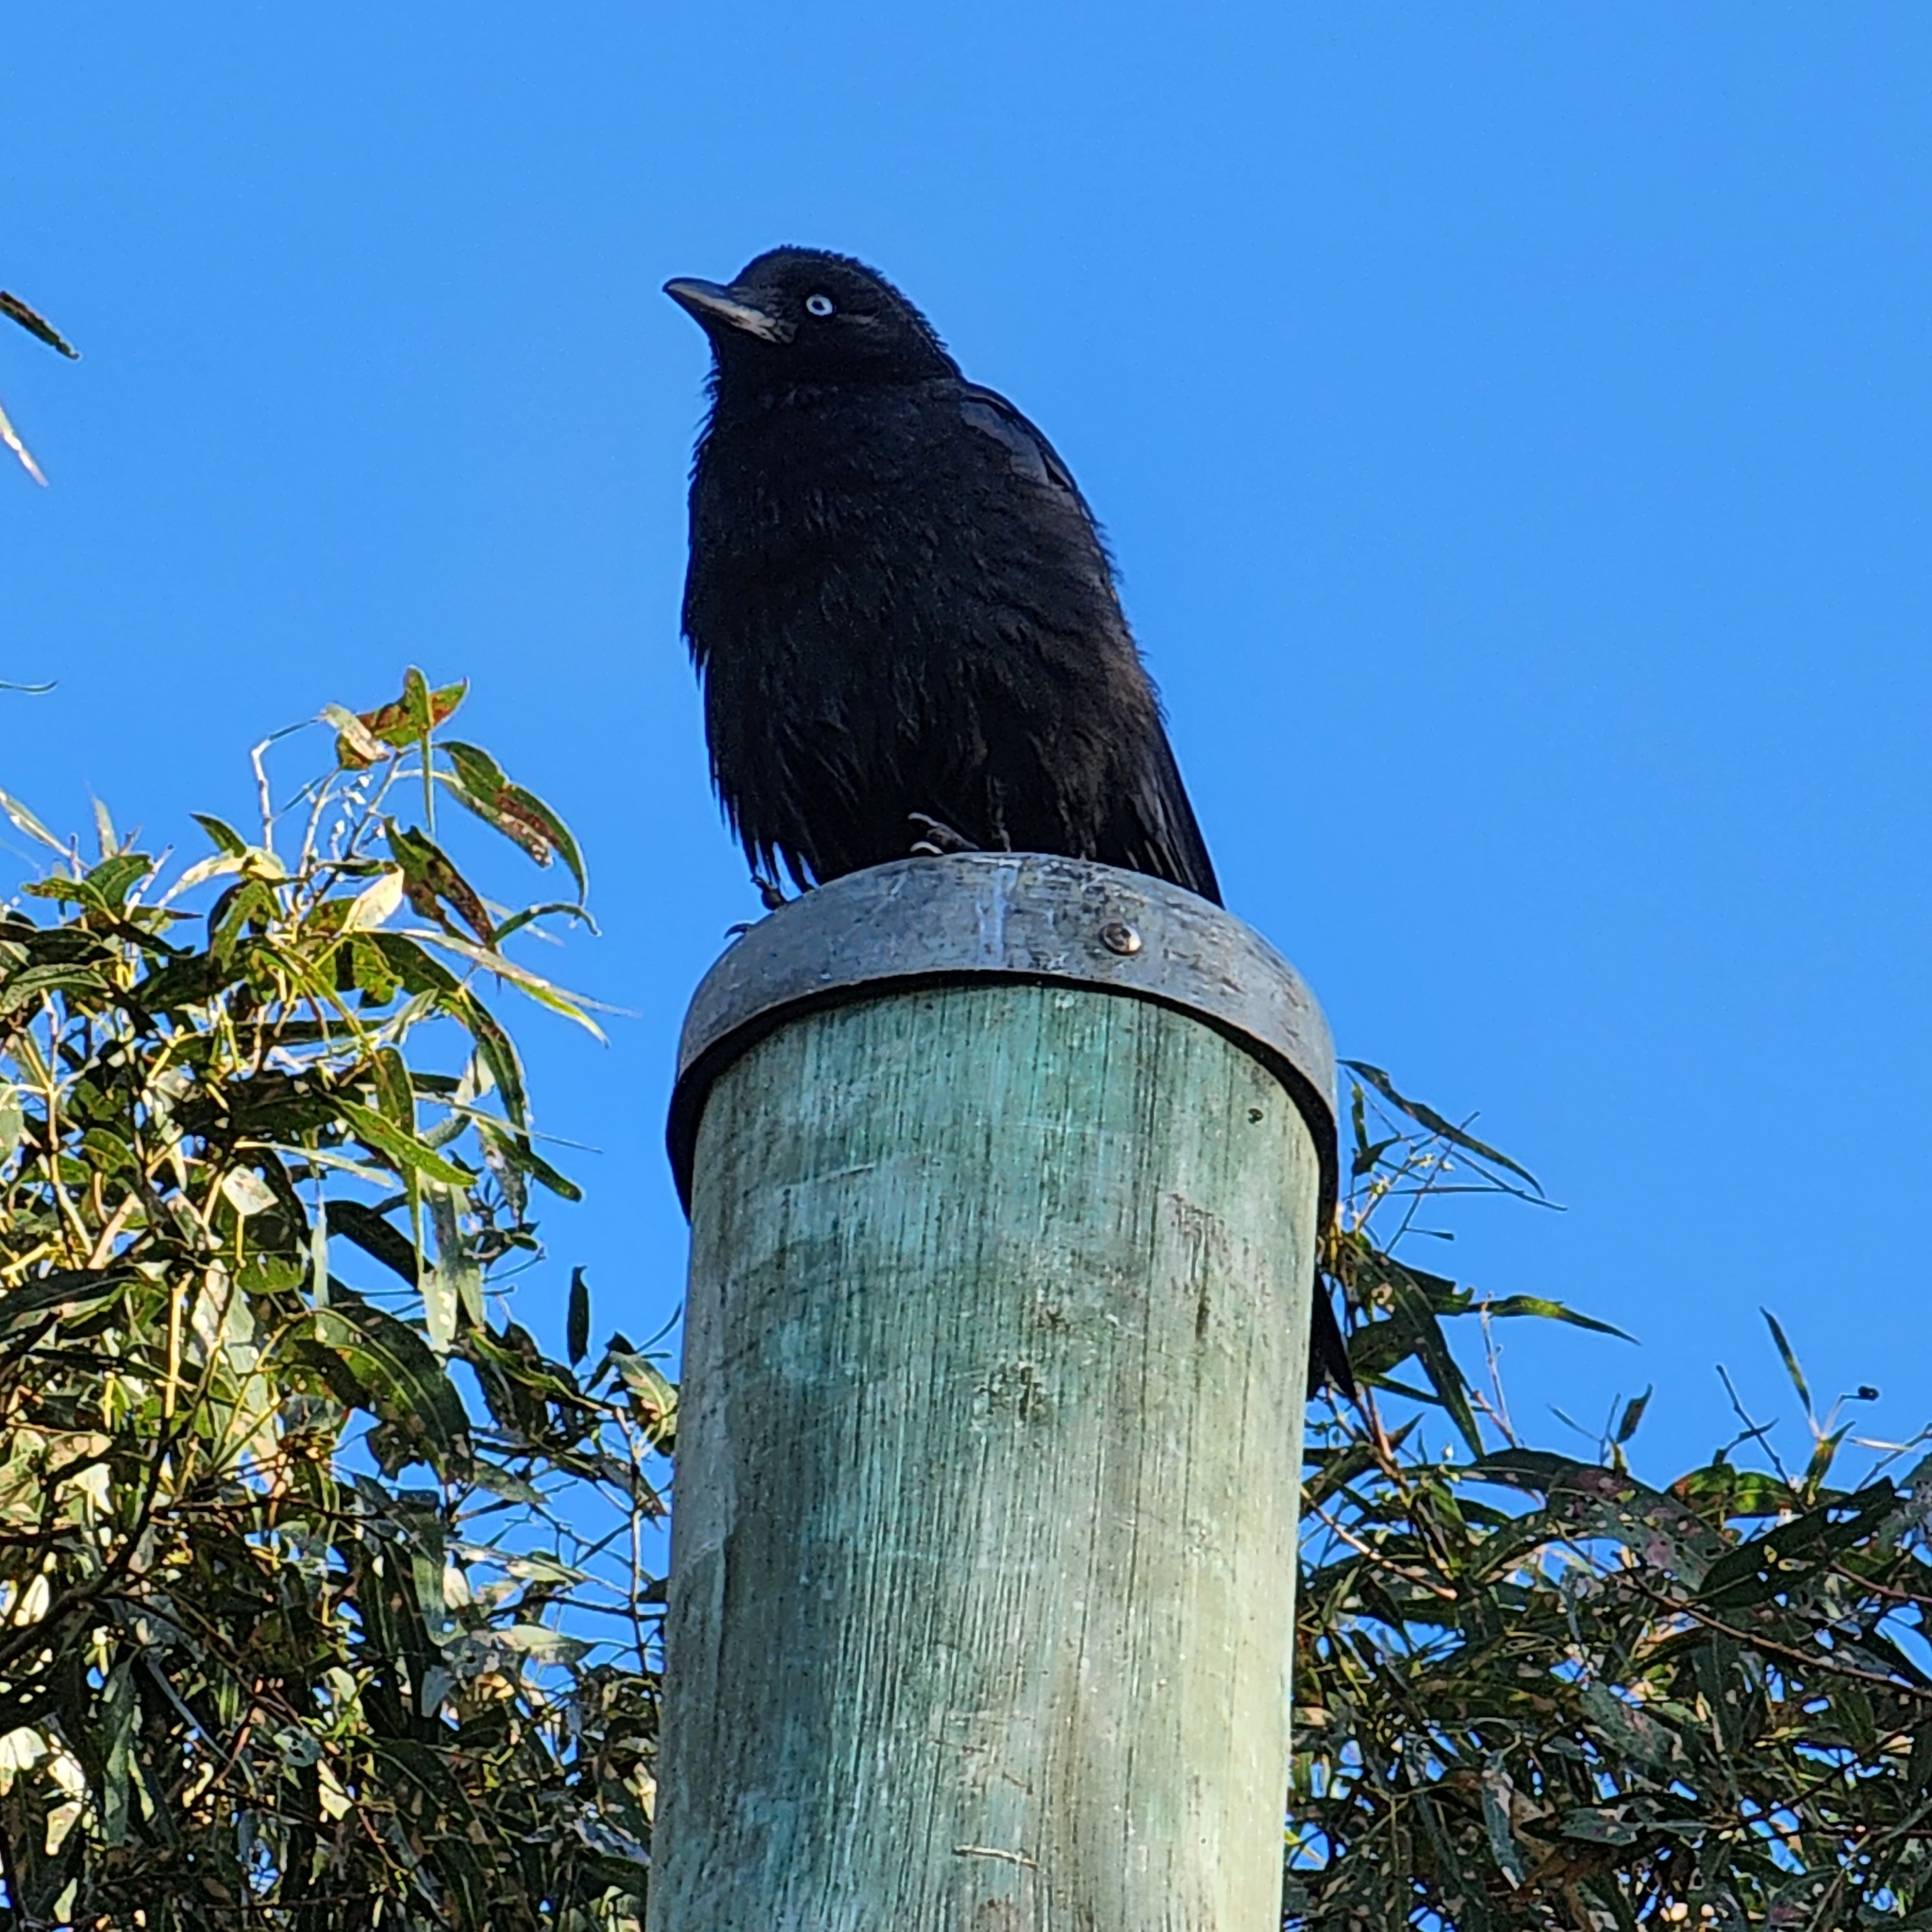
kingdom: Animalia
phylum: Chordata
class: Aves
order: Passeriformes
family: Corvidae
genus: Corvus
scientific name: Corvus mellori
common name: Little raven
